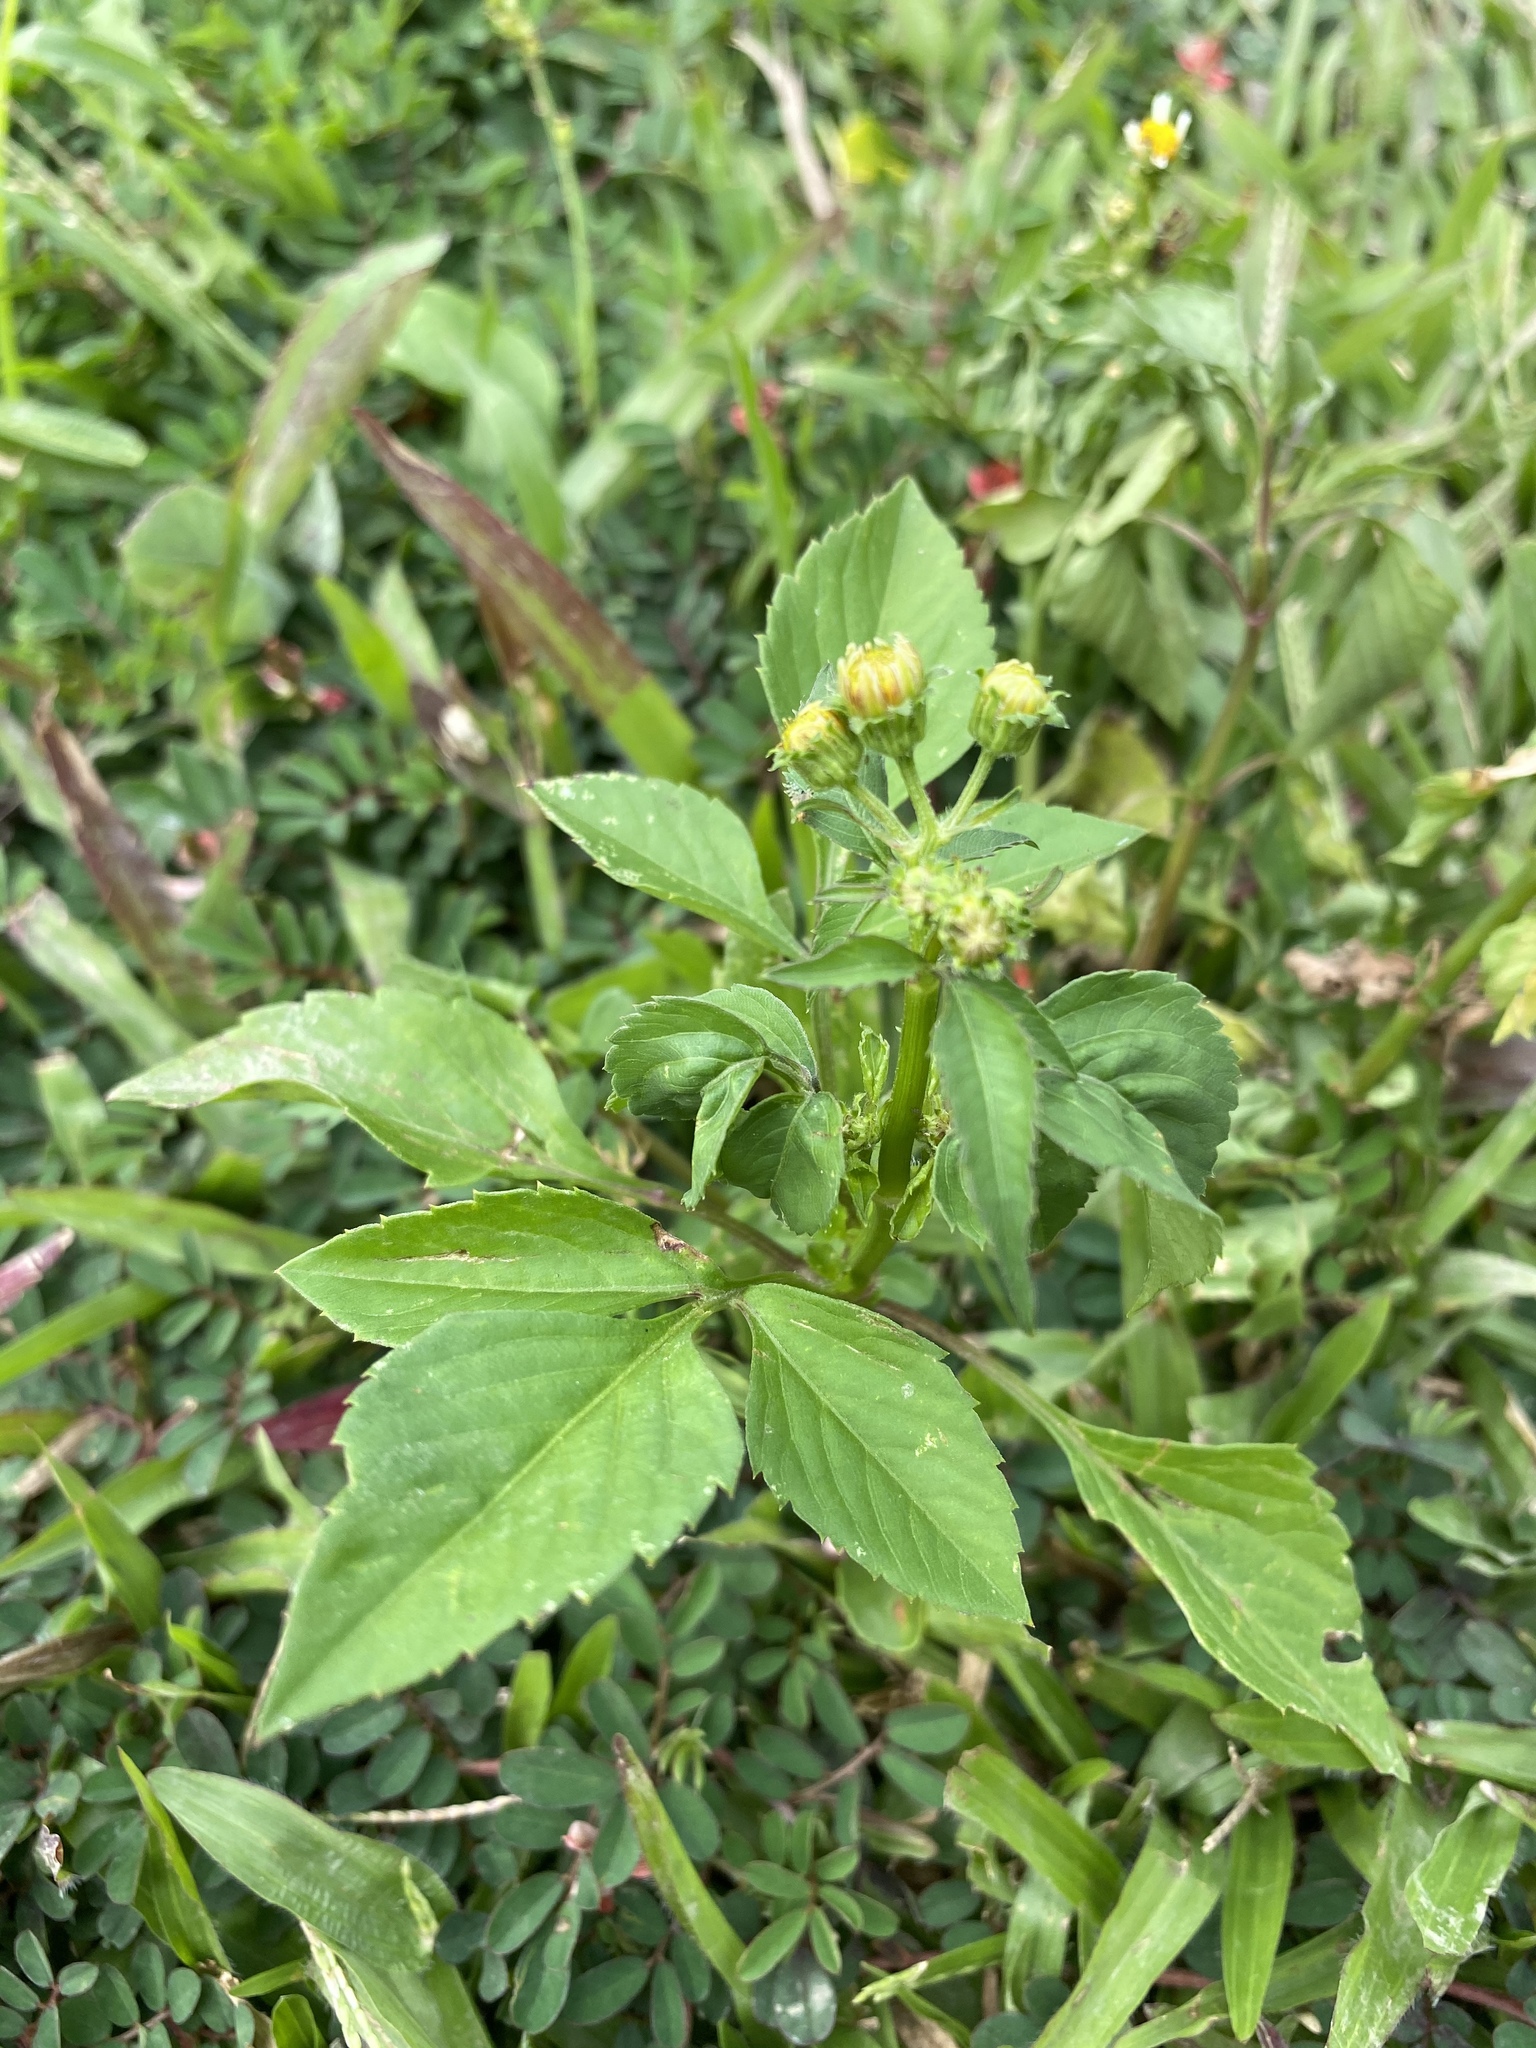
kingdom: Plantae
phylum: Tracheophyta
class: Magnoliopsida
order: Asterales
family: Asteraceae
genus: Bidens
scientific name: Bidens alba
